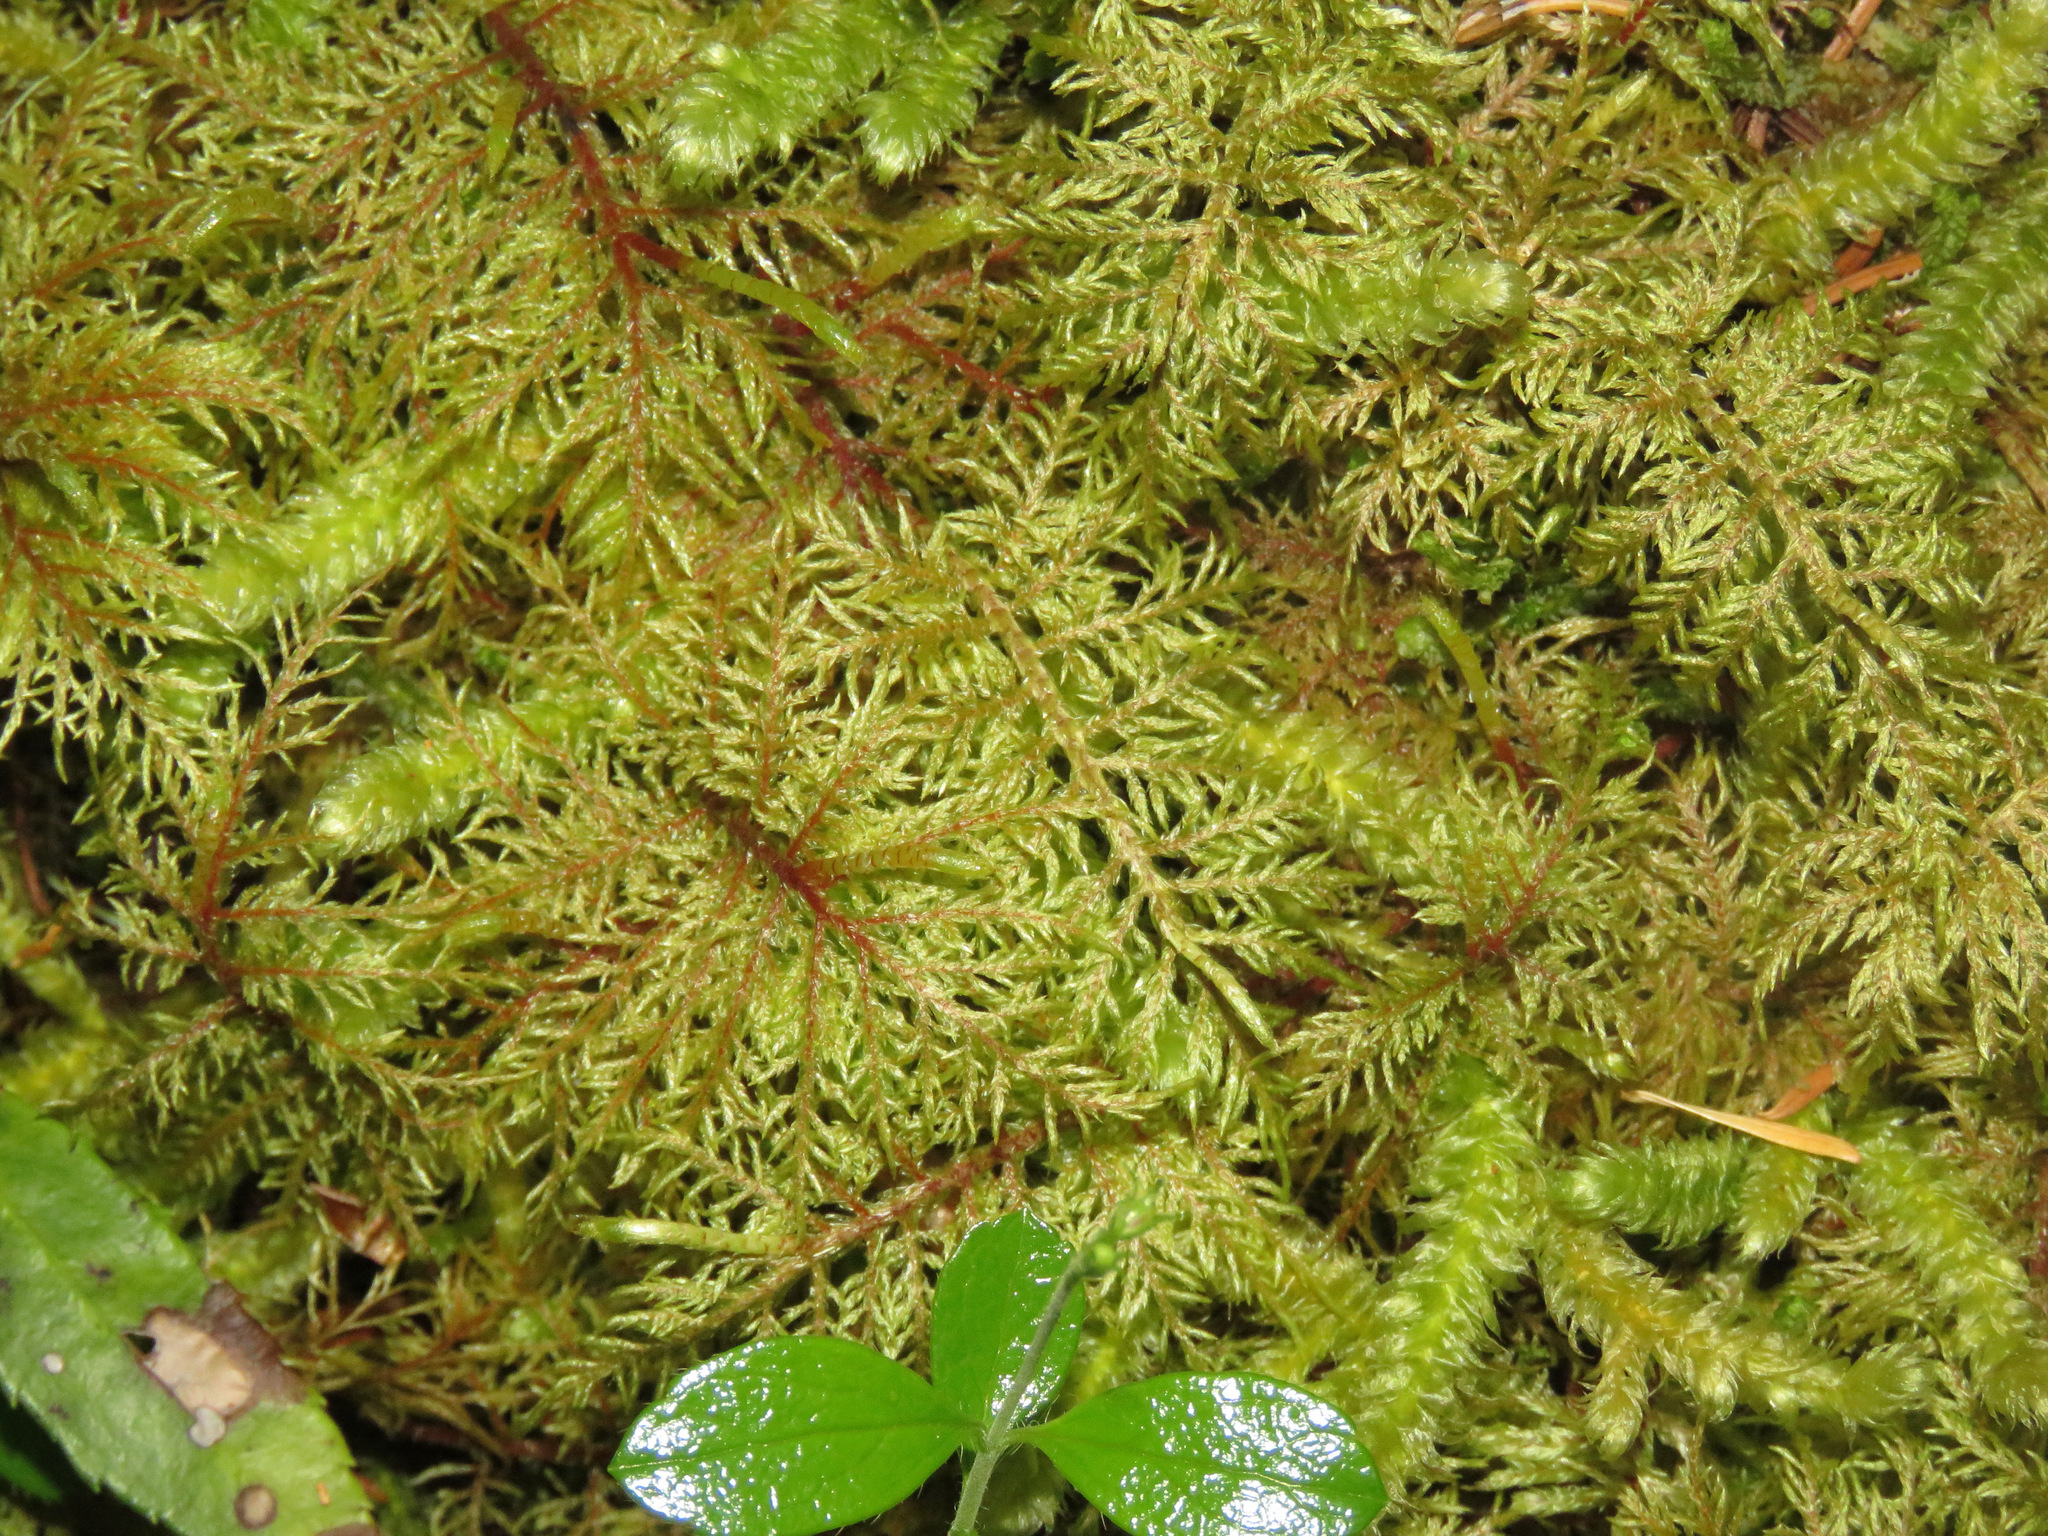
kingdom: Plantae
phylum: Bryophyta
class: Bryopsida
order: Hypnales
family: Hylocomiaceae
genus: Hylocomium
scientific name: Hylocomium splendens
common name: Stairstep moss
